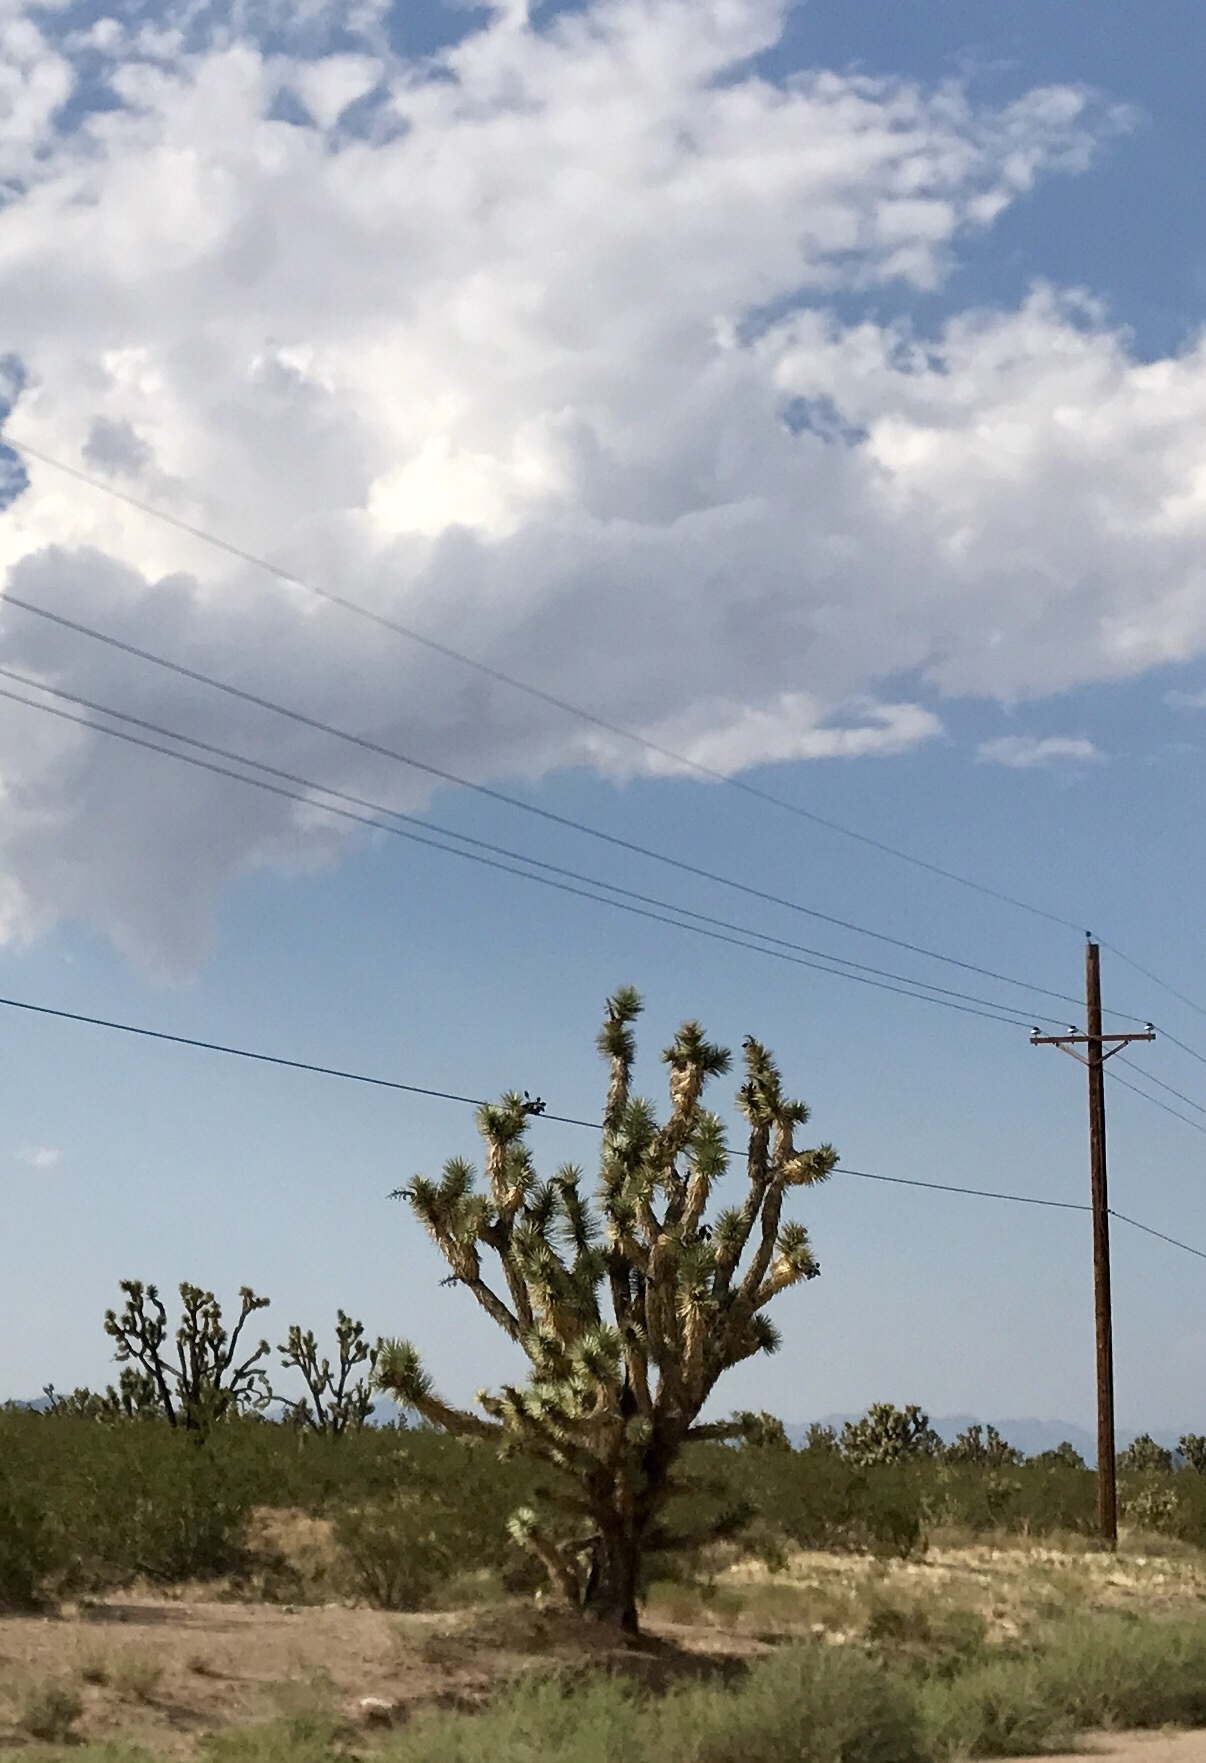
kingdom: Plantae
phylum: Tracheophyta
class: Liliopsida
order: Asparagales
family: Asparagaceae
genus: Yucca
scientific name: Yucca brevifolia
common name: Joshua tree
